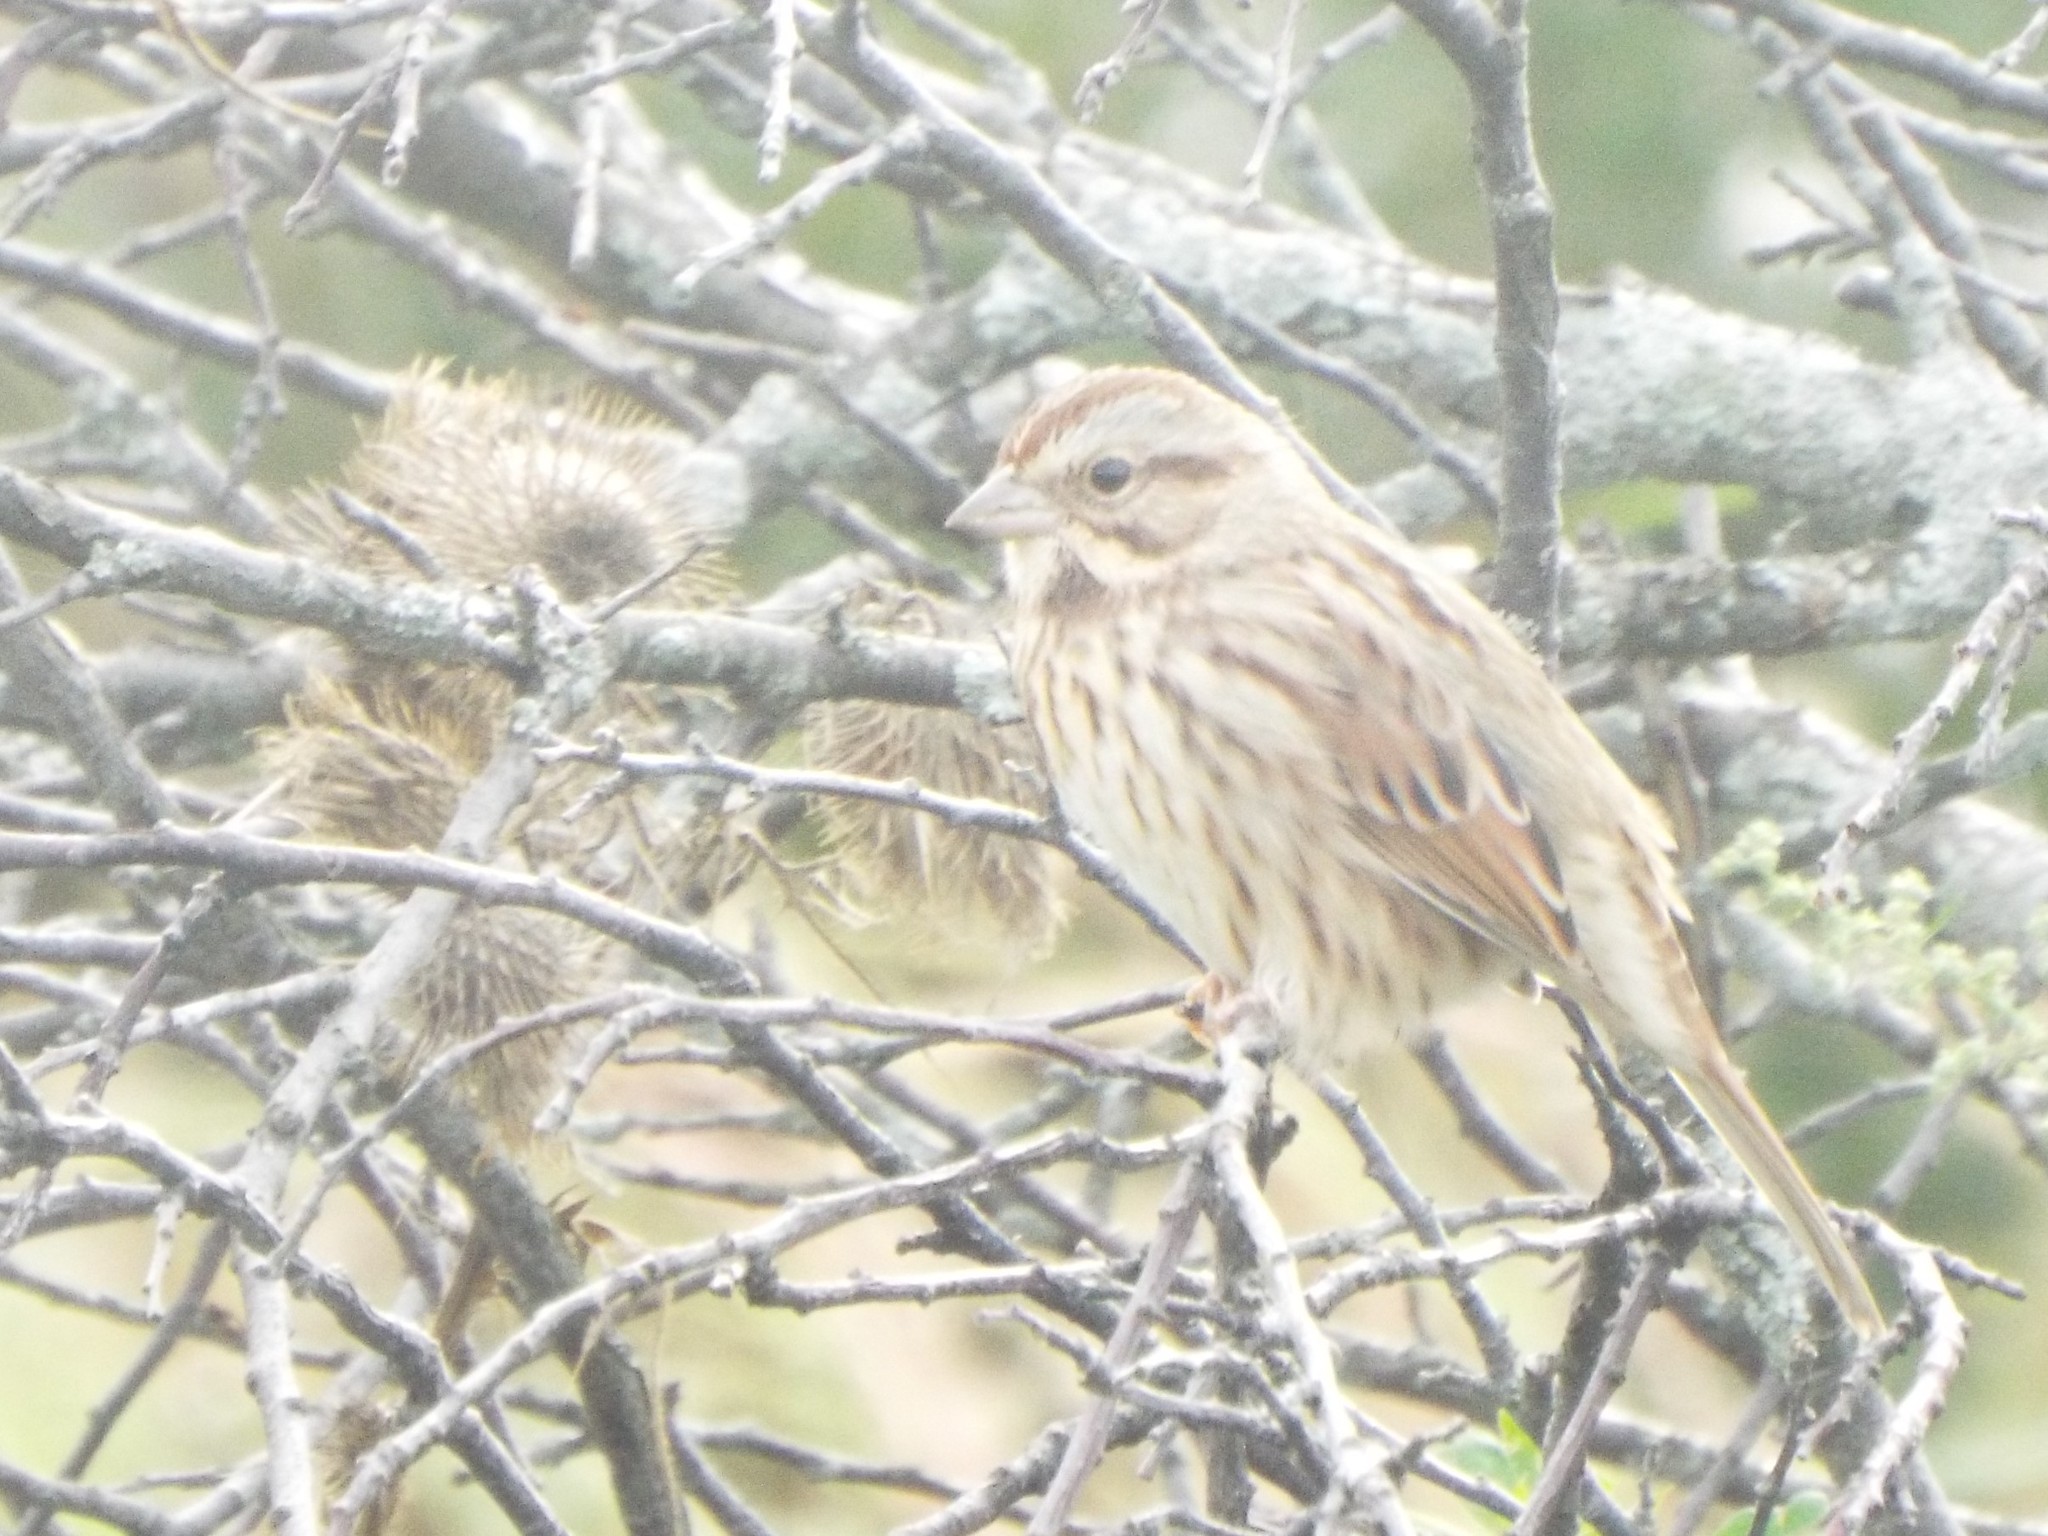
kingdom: Animalia
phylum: Chordata
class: Aves
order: Passeriformes
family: Passerellidae
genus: Melospiza
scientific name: Melospiza melodia
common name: Song sparrow
